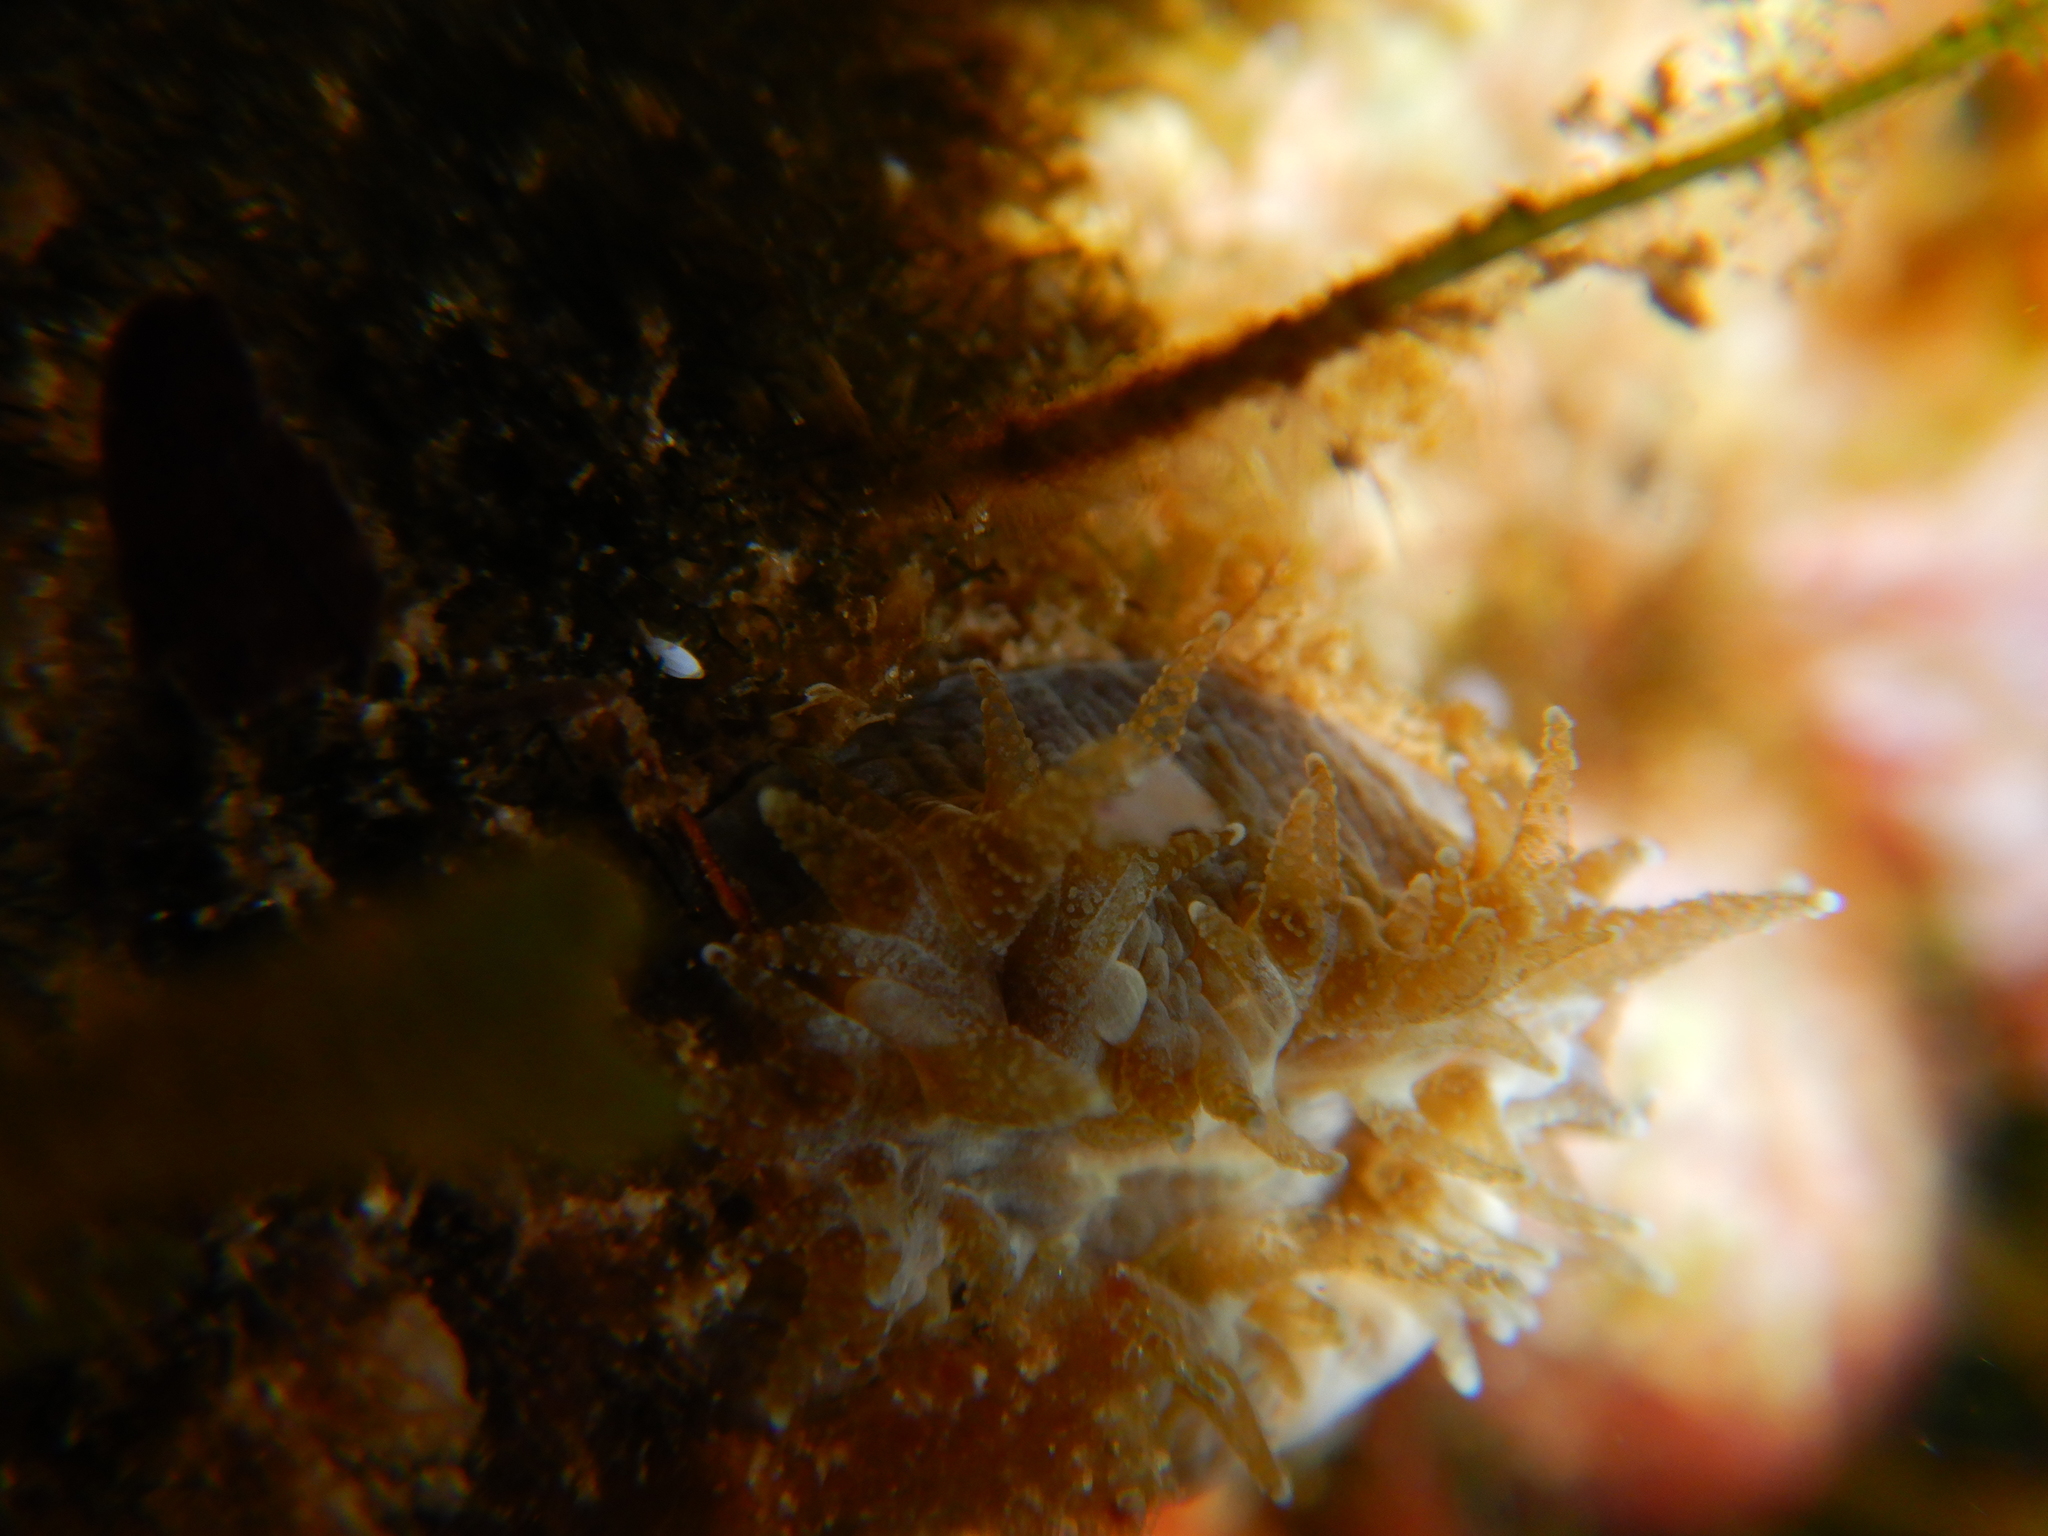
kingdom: Animalia
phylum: Cnidaria
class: Anthozoa
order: Scleractinia
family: Dendrophylliidae
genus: Balanophyllia
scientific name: Balanophyllia europaea
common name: Scarlet coral
